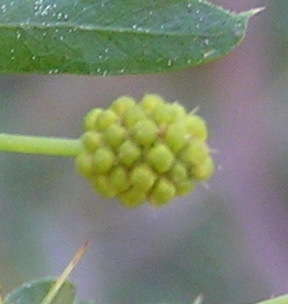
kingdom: Plantae
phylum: Tracheophyta
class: Magnoliopsida
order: Fabales
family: Fabaceae
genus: Acacia
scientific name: Acacia paradoxa
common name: Paradox acacia
